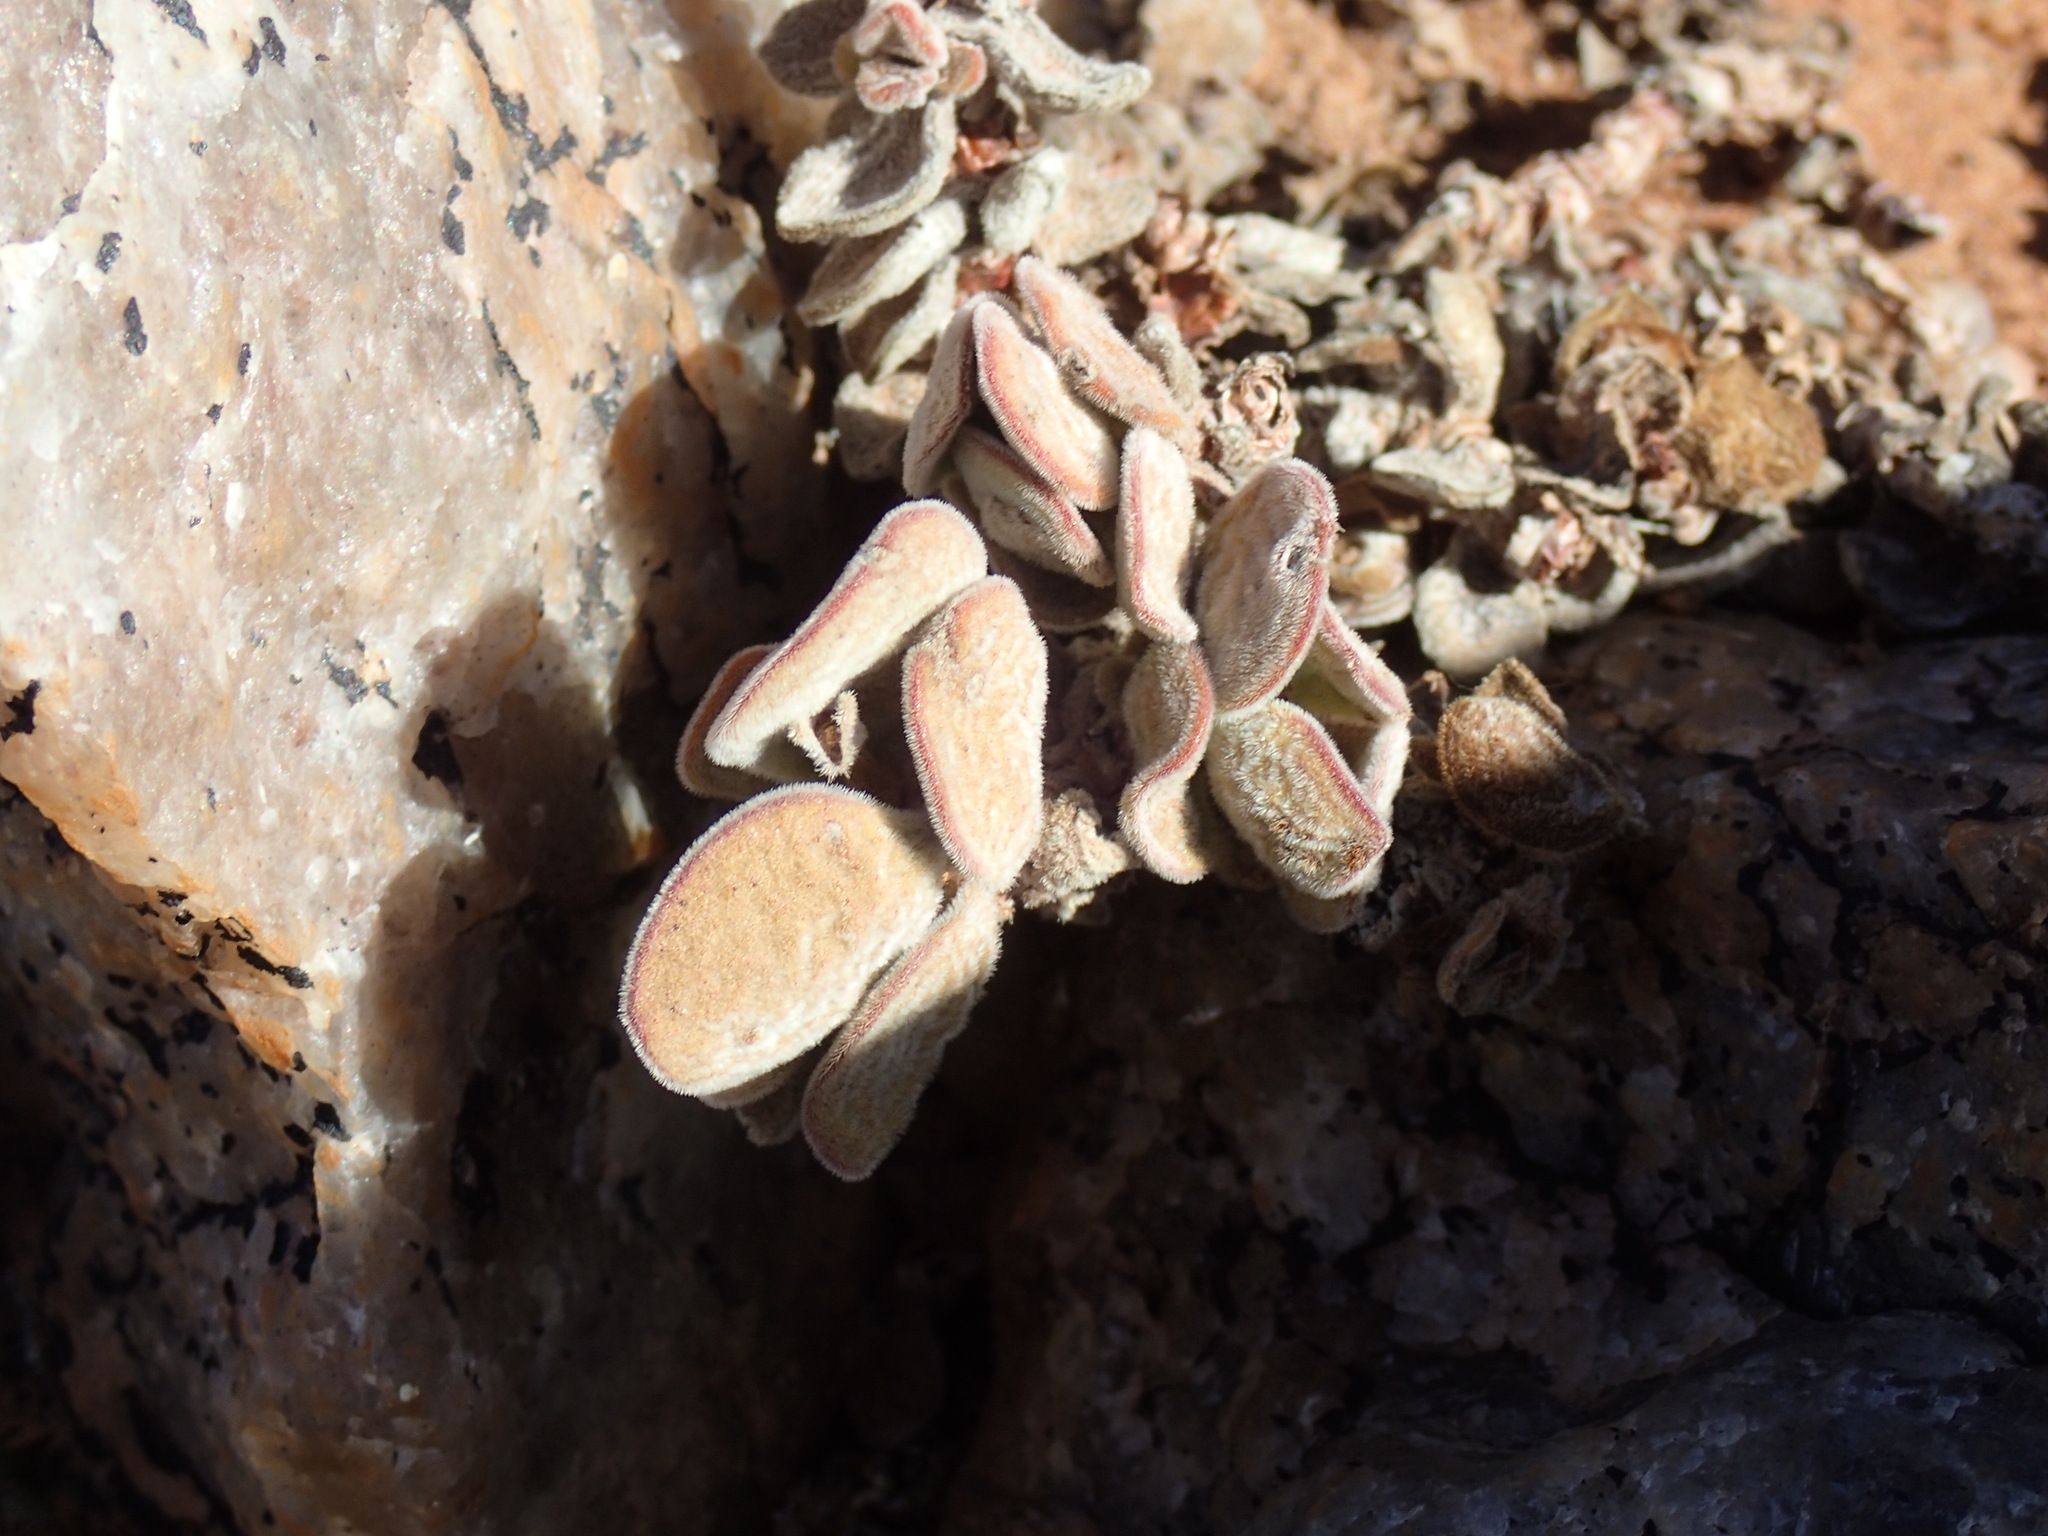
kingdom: Plantae
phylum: Tracheophyta
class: Magnoliopsida
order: Saxifragales
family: Crassulaceae
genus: Crassula
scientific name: Crassula sericea
